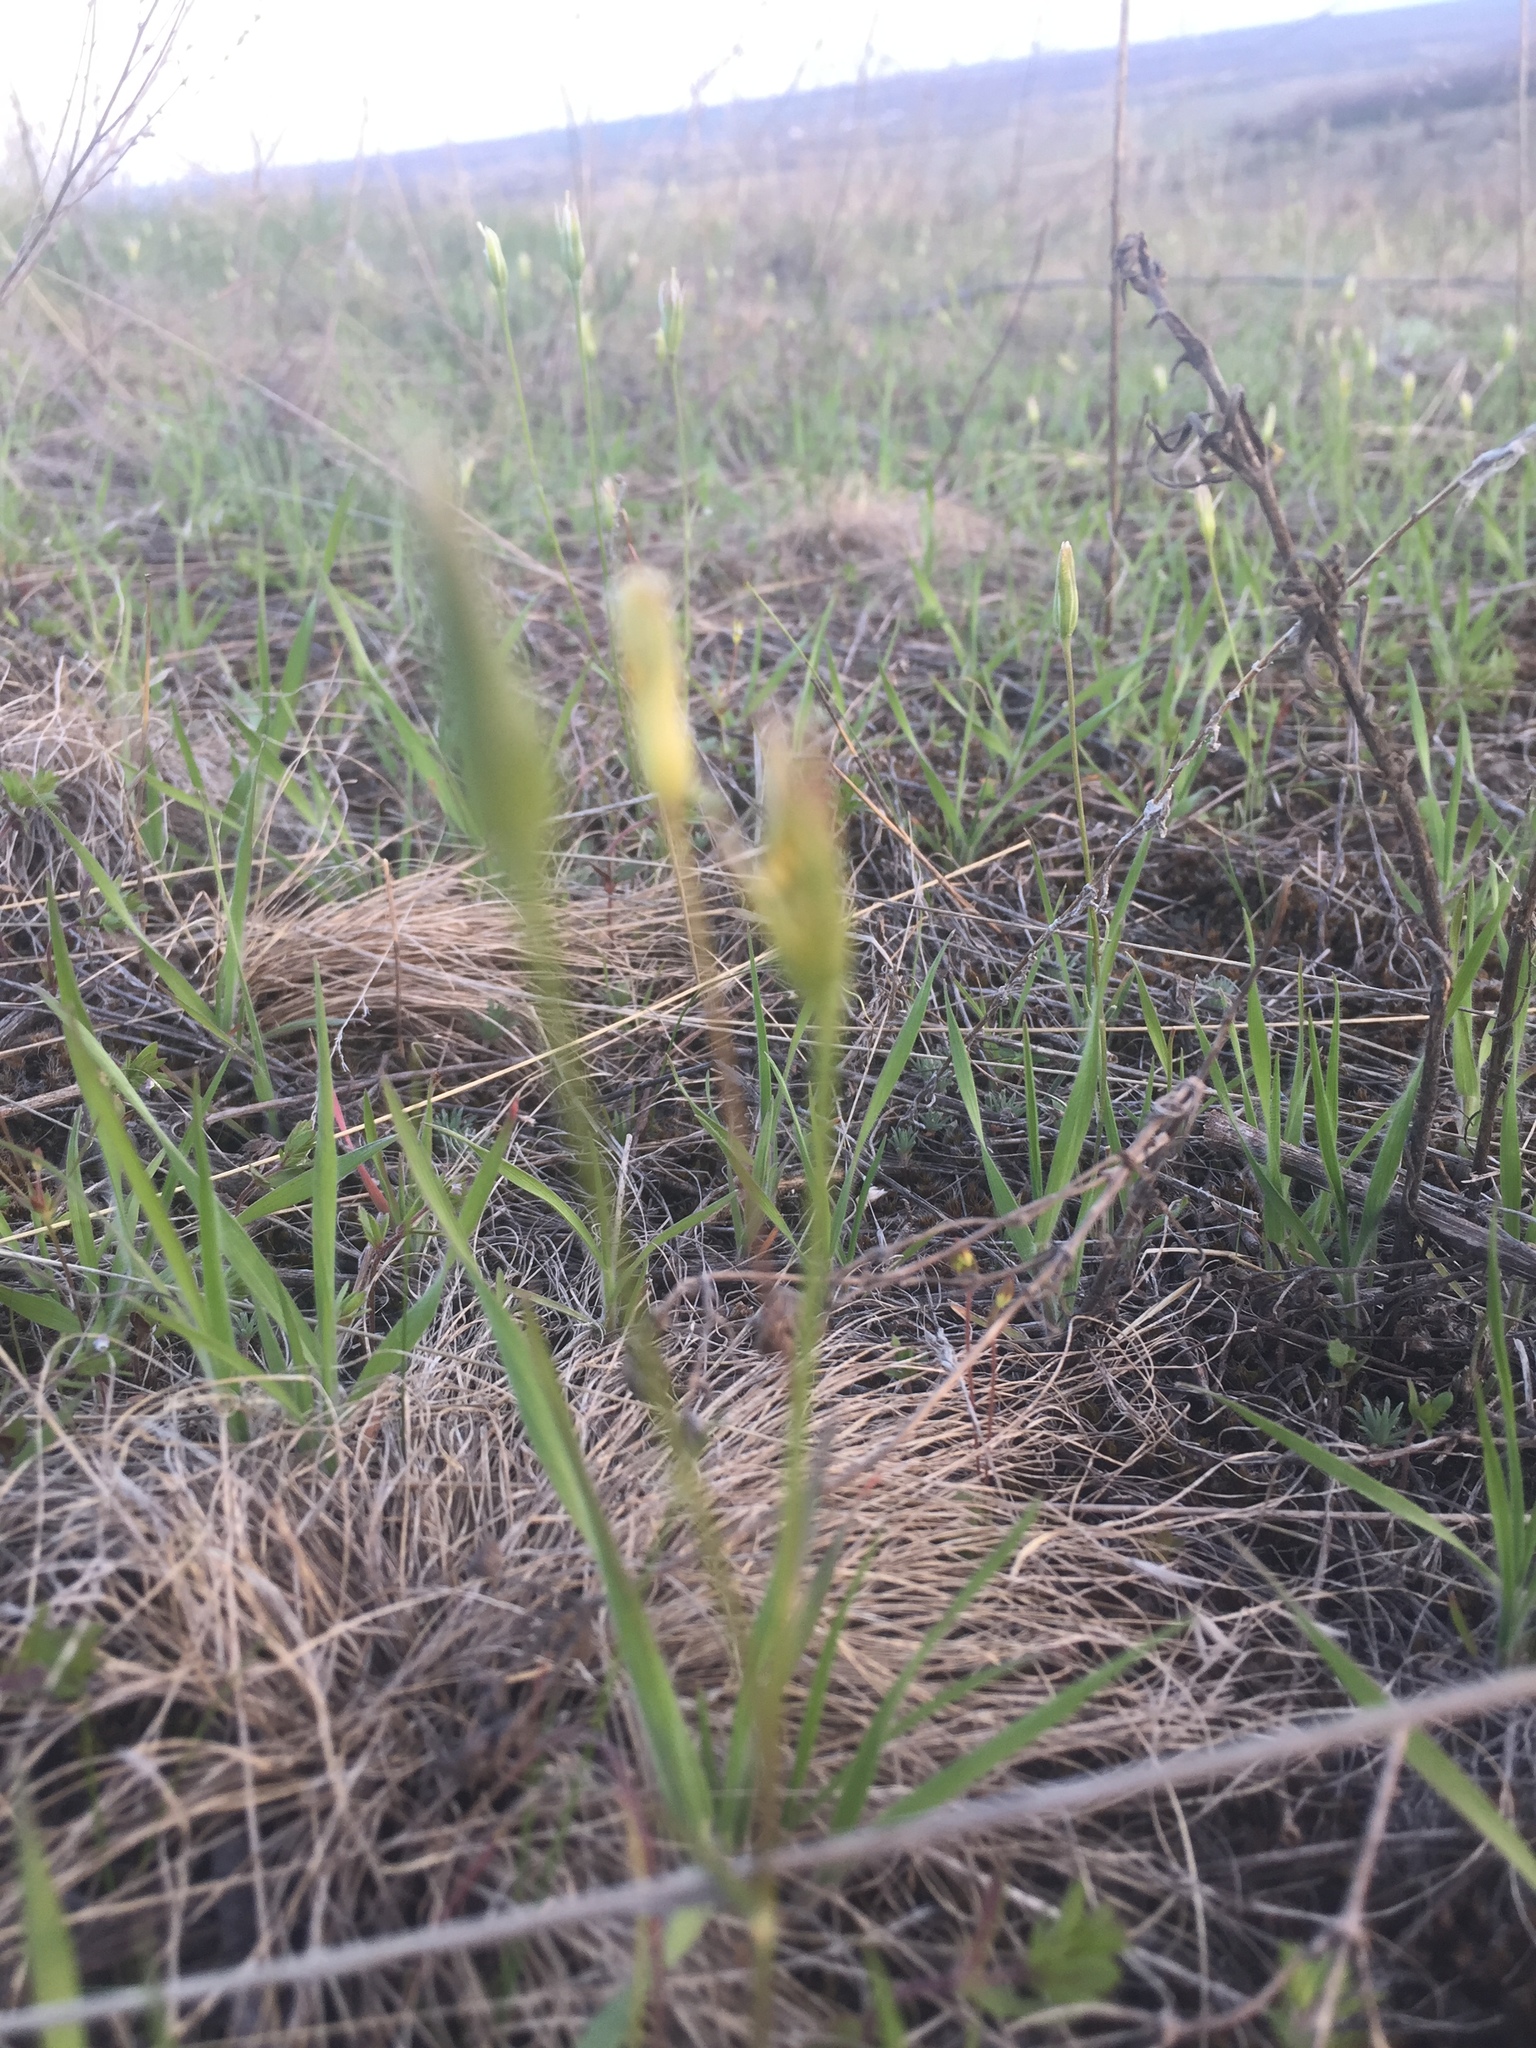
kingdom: Plantae
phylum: Tracheophyta
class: Liliopsida
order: Liliales
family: Liliaceae
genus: Gagea
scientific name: Gagea bulbifera
